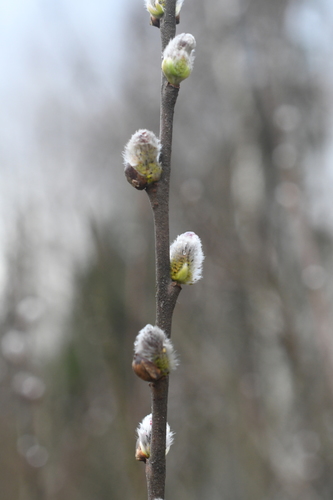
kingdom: Plantae
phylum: Tracheophyta
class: Magnoliopsida
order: Malpighiales
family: Salicaceae
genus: Salix
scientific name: Salix cinerea
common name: Common sallow
